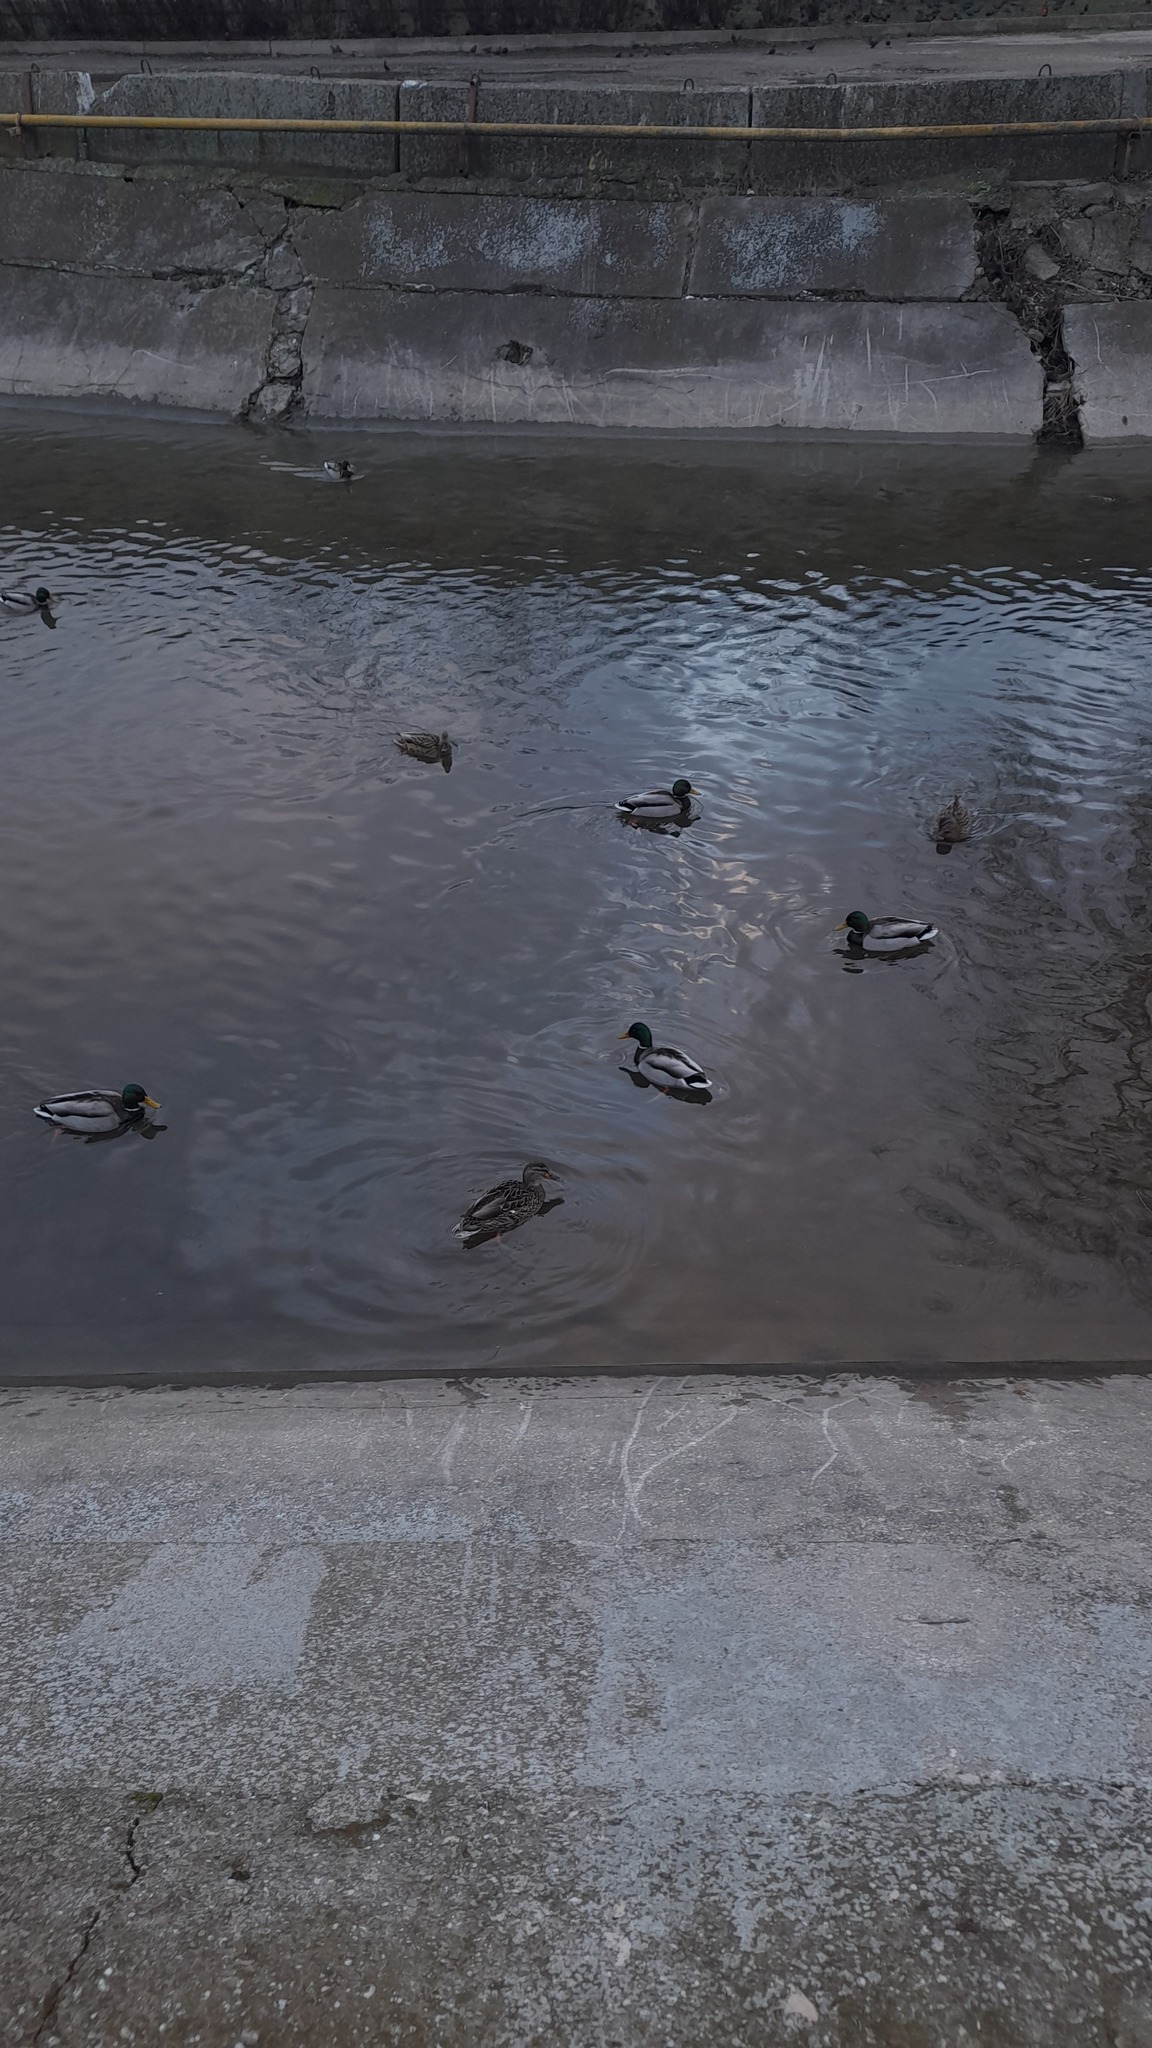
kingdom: Animalia
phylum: Chordata
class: Aves
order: Anseriformes
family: Anatidae
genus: Anas
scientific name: Anas platyrhynchos
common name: Mallard
